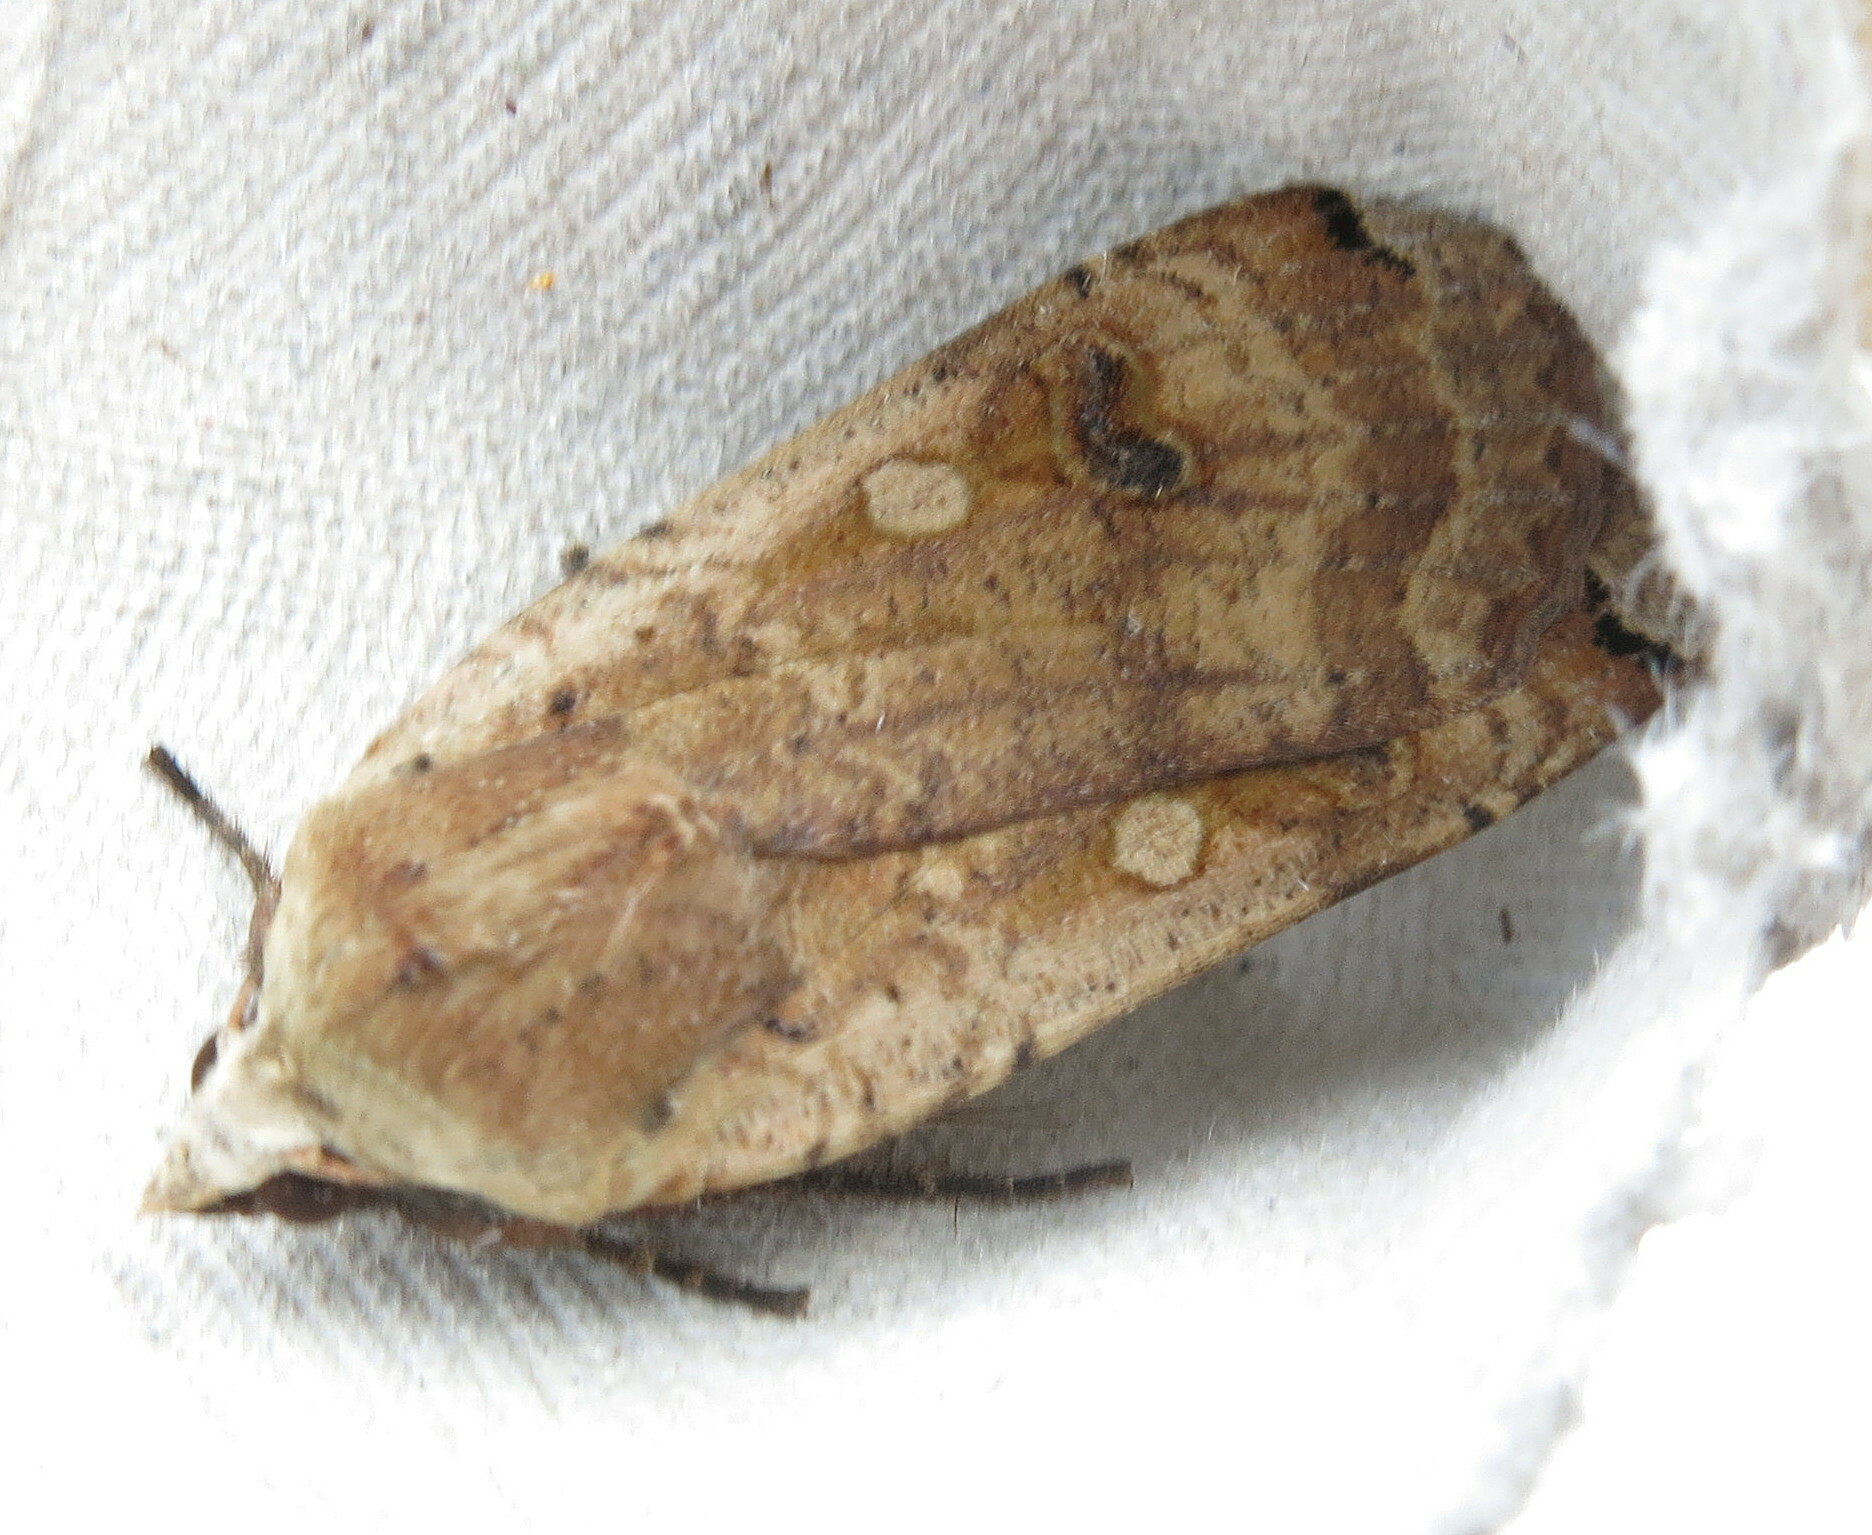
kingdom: Animalia
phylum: Arthropoda
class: Insecta
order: Lepidoptera
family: Noctuidae
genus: Noctua
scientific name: Noctua pronuba
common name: Large yellow underwing
